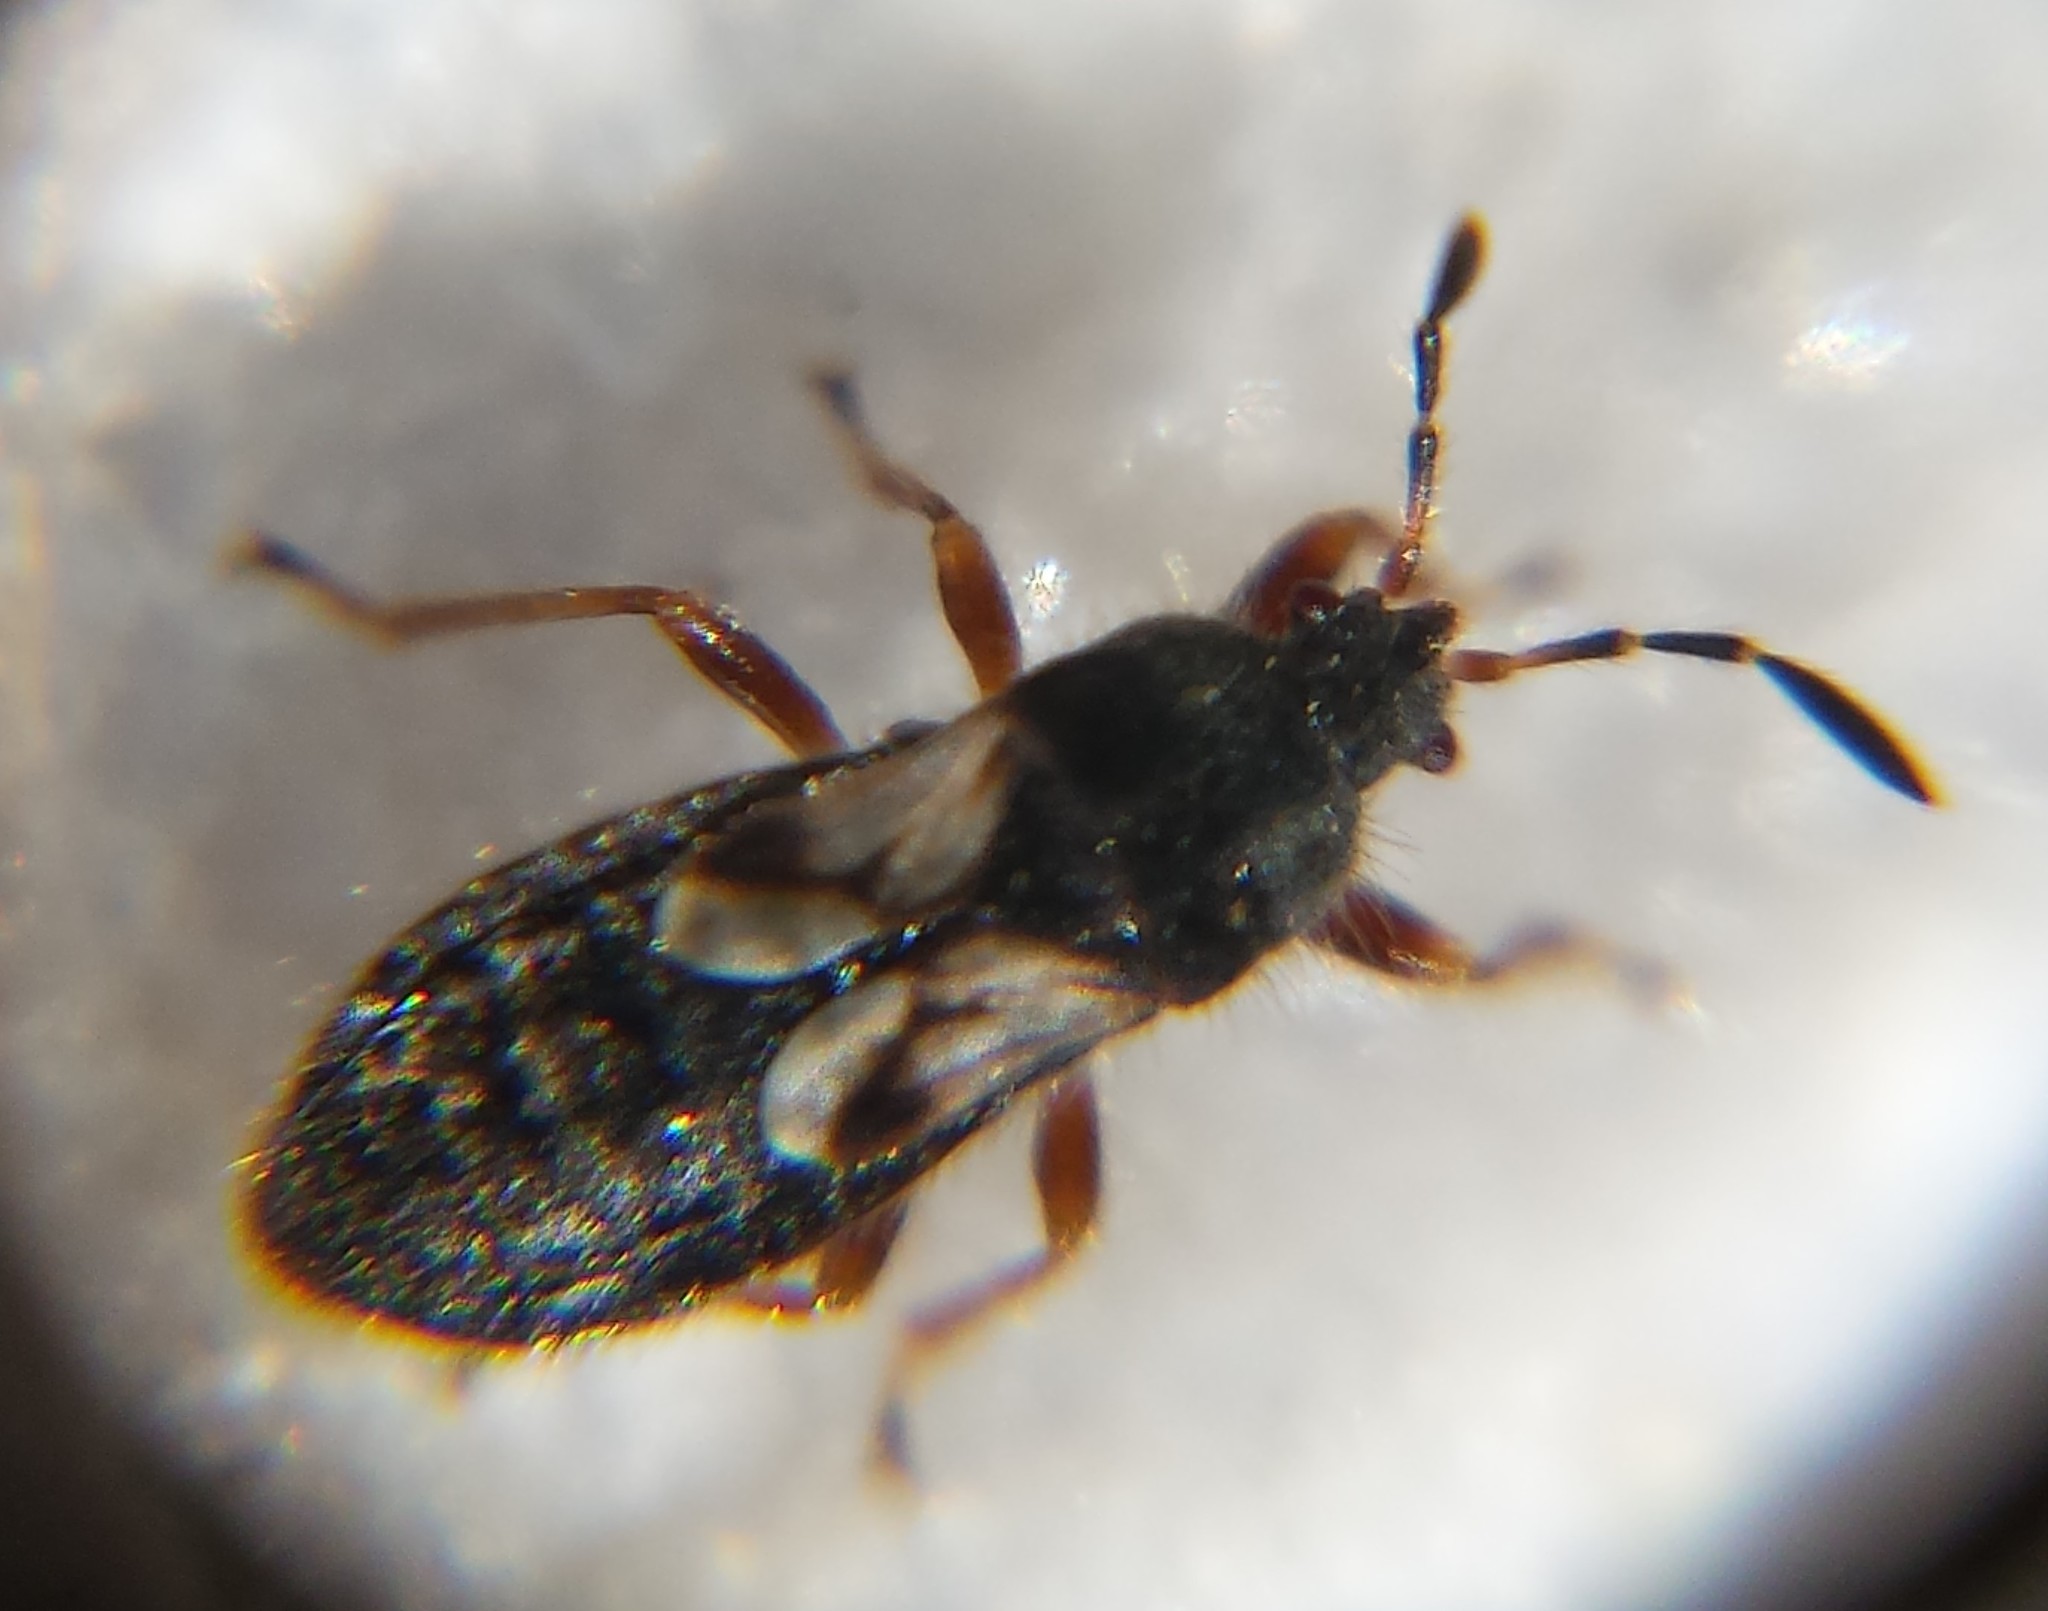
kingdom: Animalia
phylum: Arthropoda
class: Insecta
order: Hemiptera
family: Blissidae
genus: Blissus
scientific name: Blissus leucopterus
